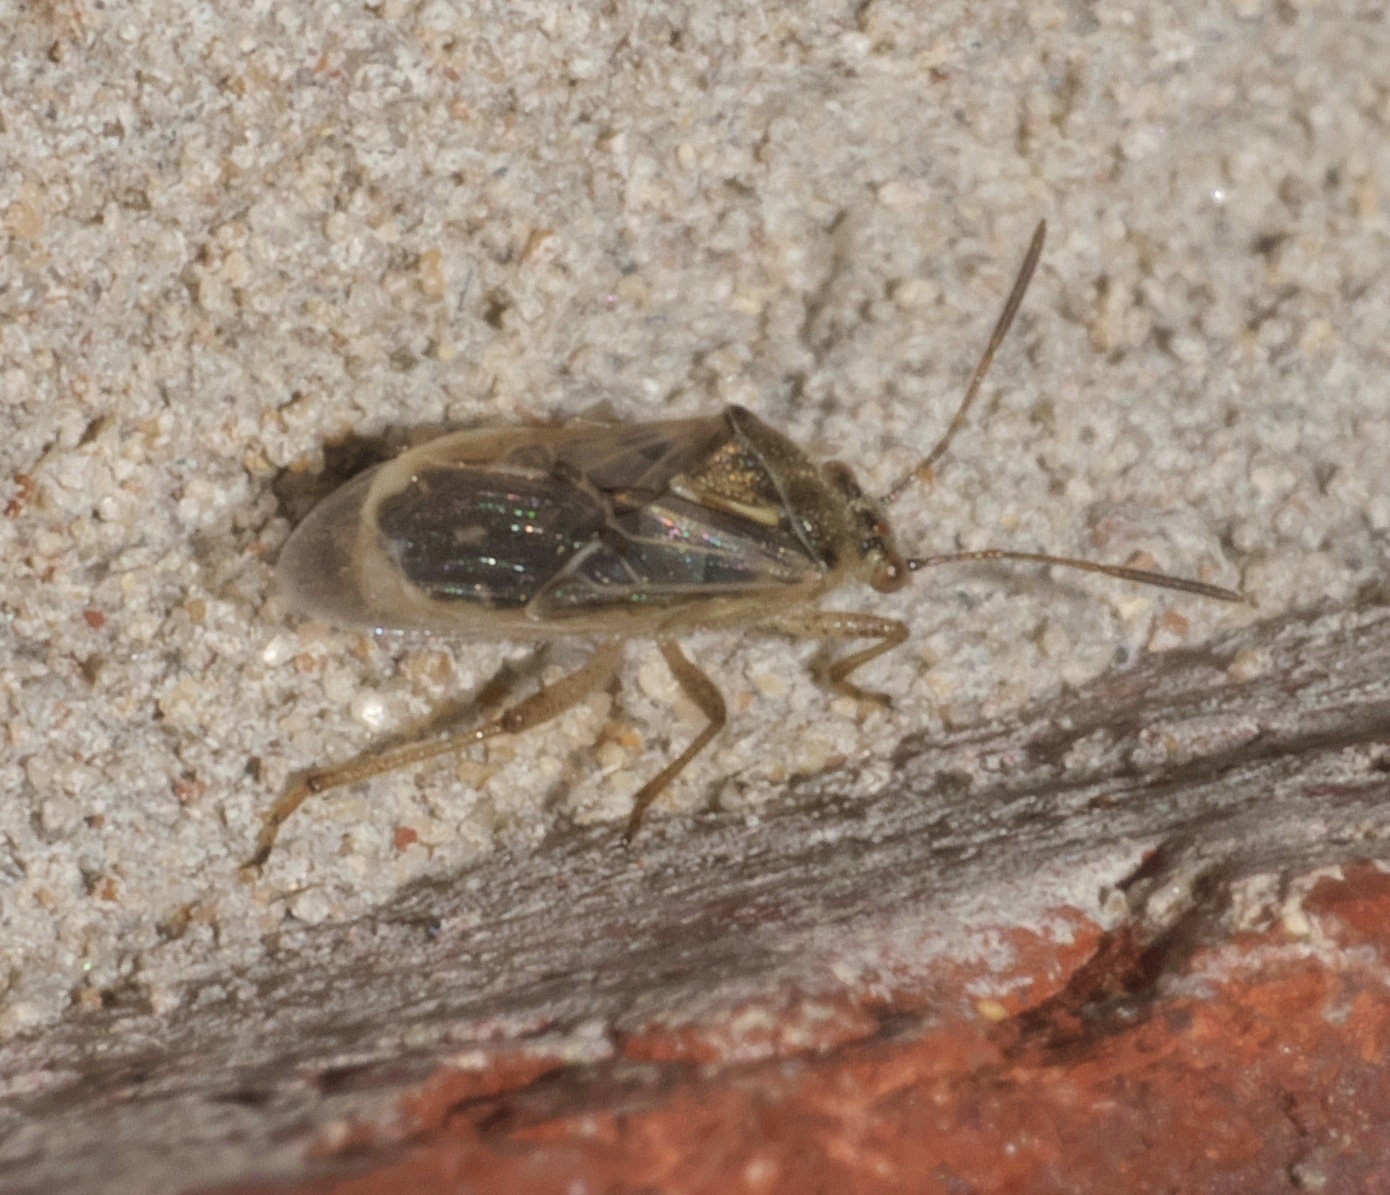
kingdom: Animalia
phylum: Arthropoda
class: Insecta
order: Hemiptera
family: Rhopalidae
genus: Liorhyssus
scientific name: Liorhyssus hyalinus
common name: Scentless plant bug
